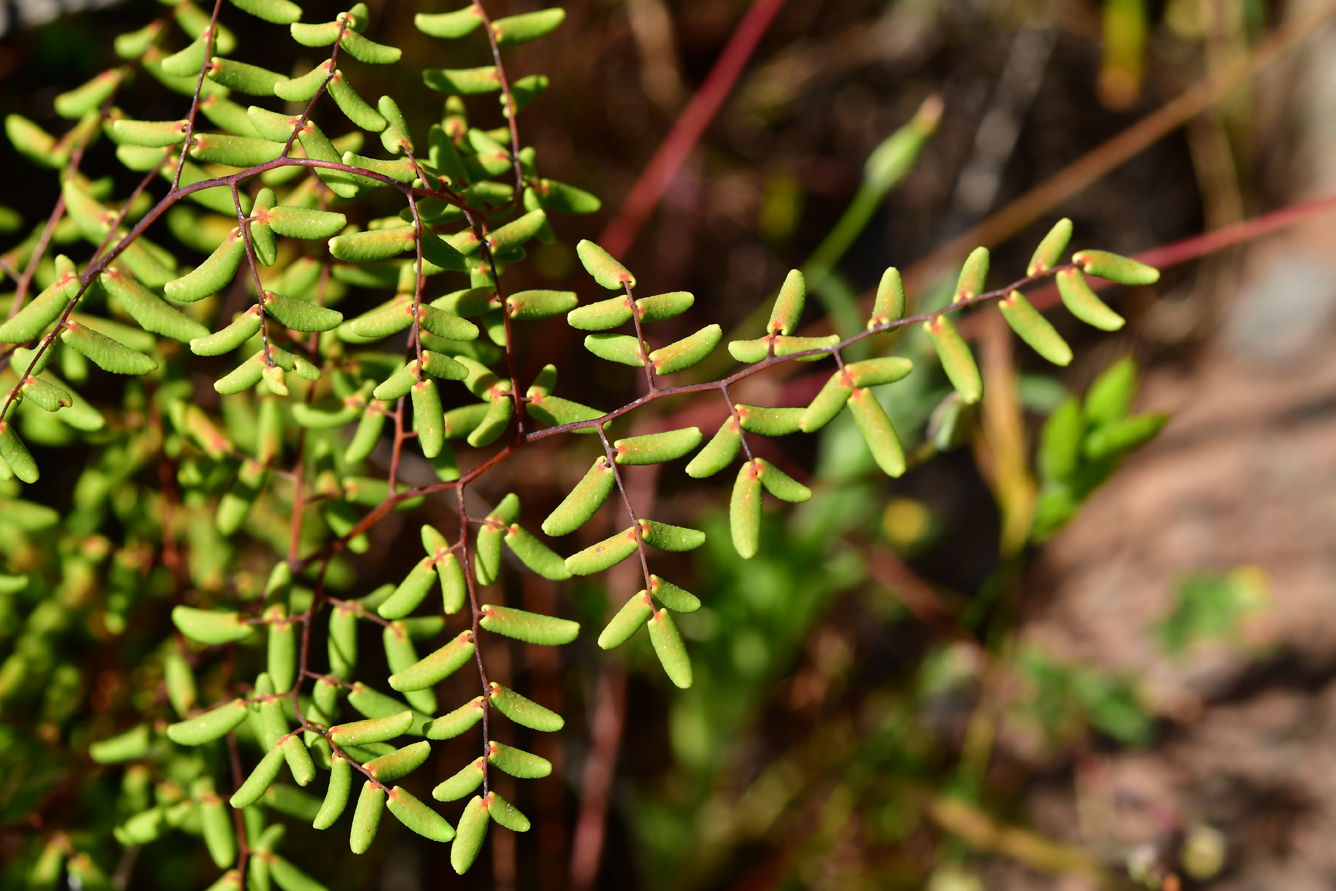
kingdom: Plantae
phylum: Tracheophyta
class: Polypodiopsida
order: Polypodiales
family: Pteridaceae
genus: Pellaea
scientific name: Pellaea andromedifolia
